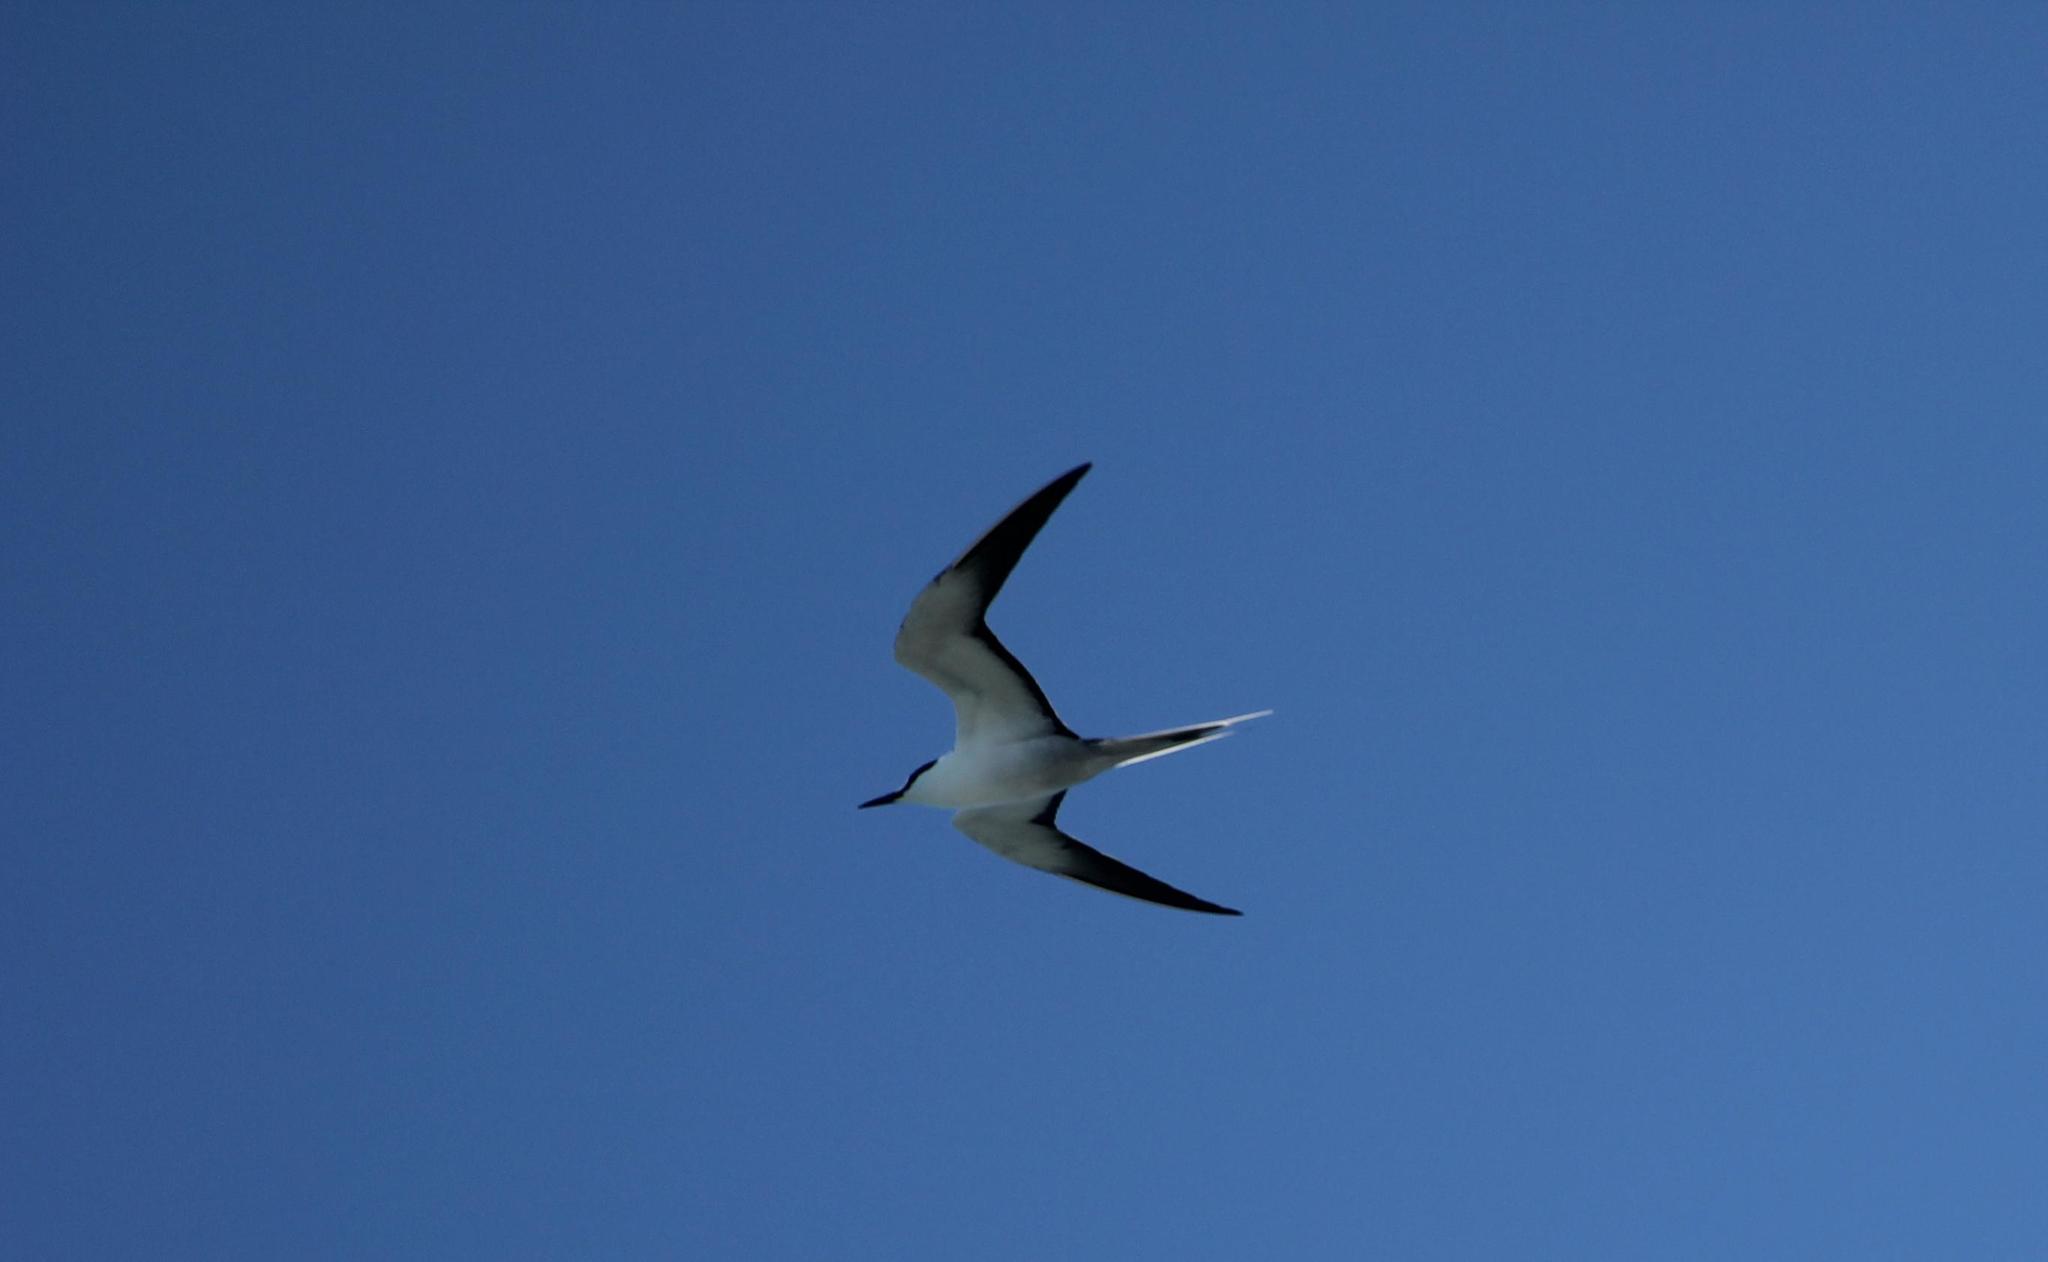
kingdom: Animalia
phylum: Chordata
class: Aves
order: Charadriiformes
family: Laridae
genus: Onychoprion
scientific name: Onychoprion fuscatus
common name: Sooty tern
